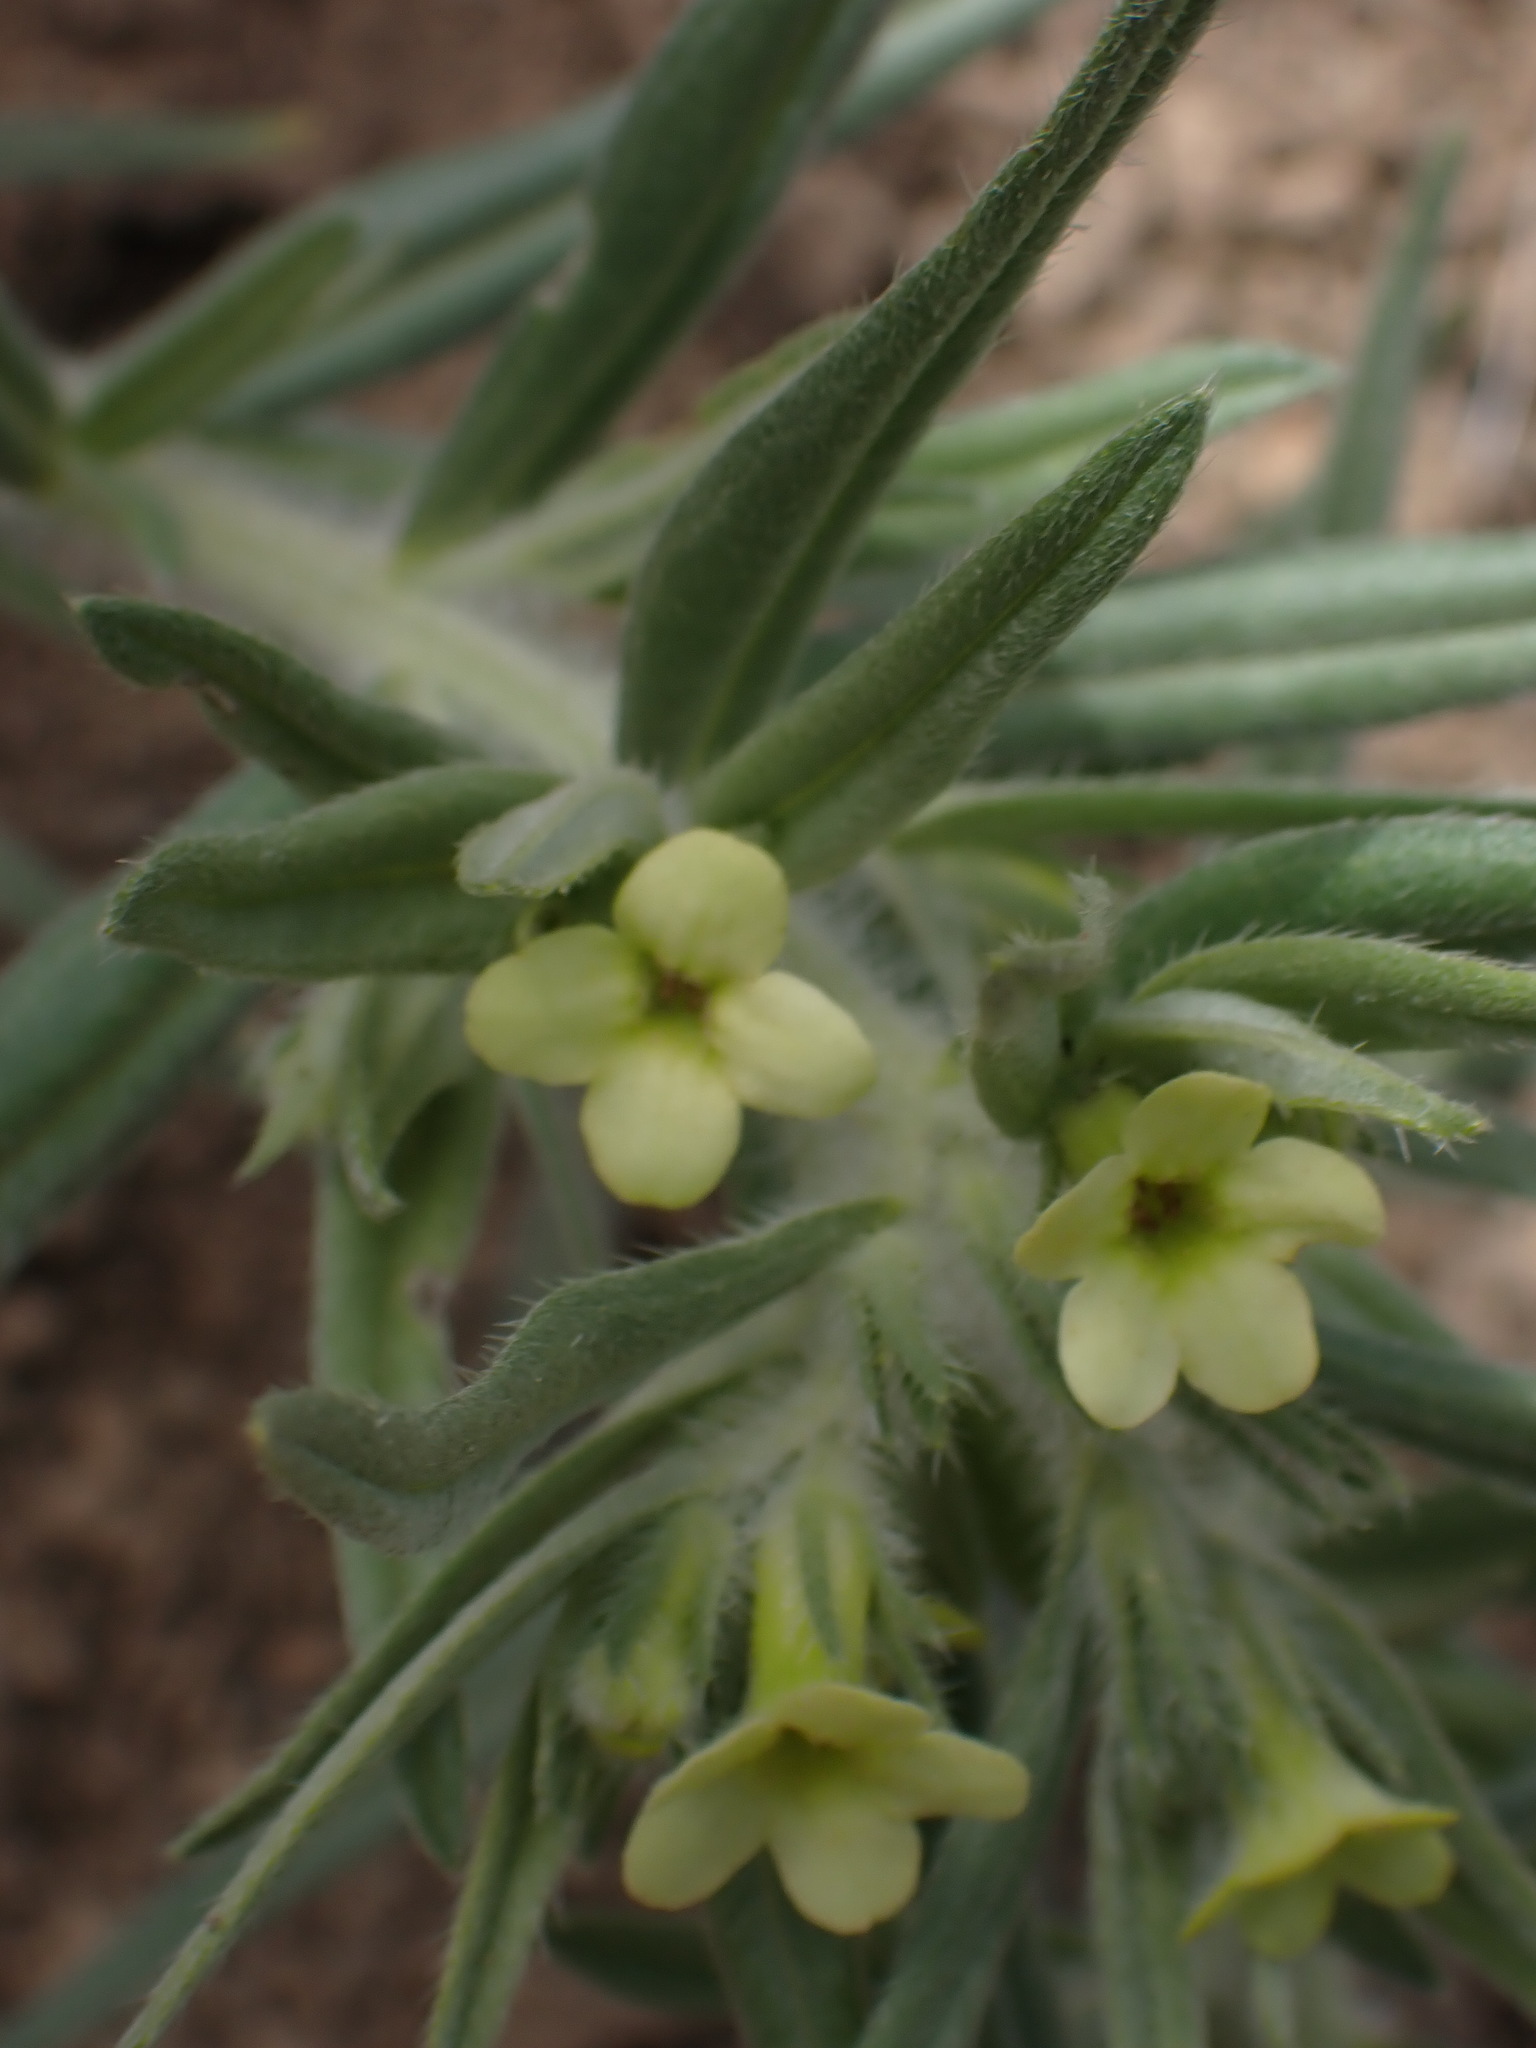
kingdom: Plantae
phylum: Tracheophyta
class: Magnoliopsida
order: Boraginales
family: Boraginaceae
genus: Lithospermum
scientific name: Lithospermum ruderale
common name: Western gromwell
